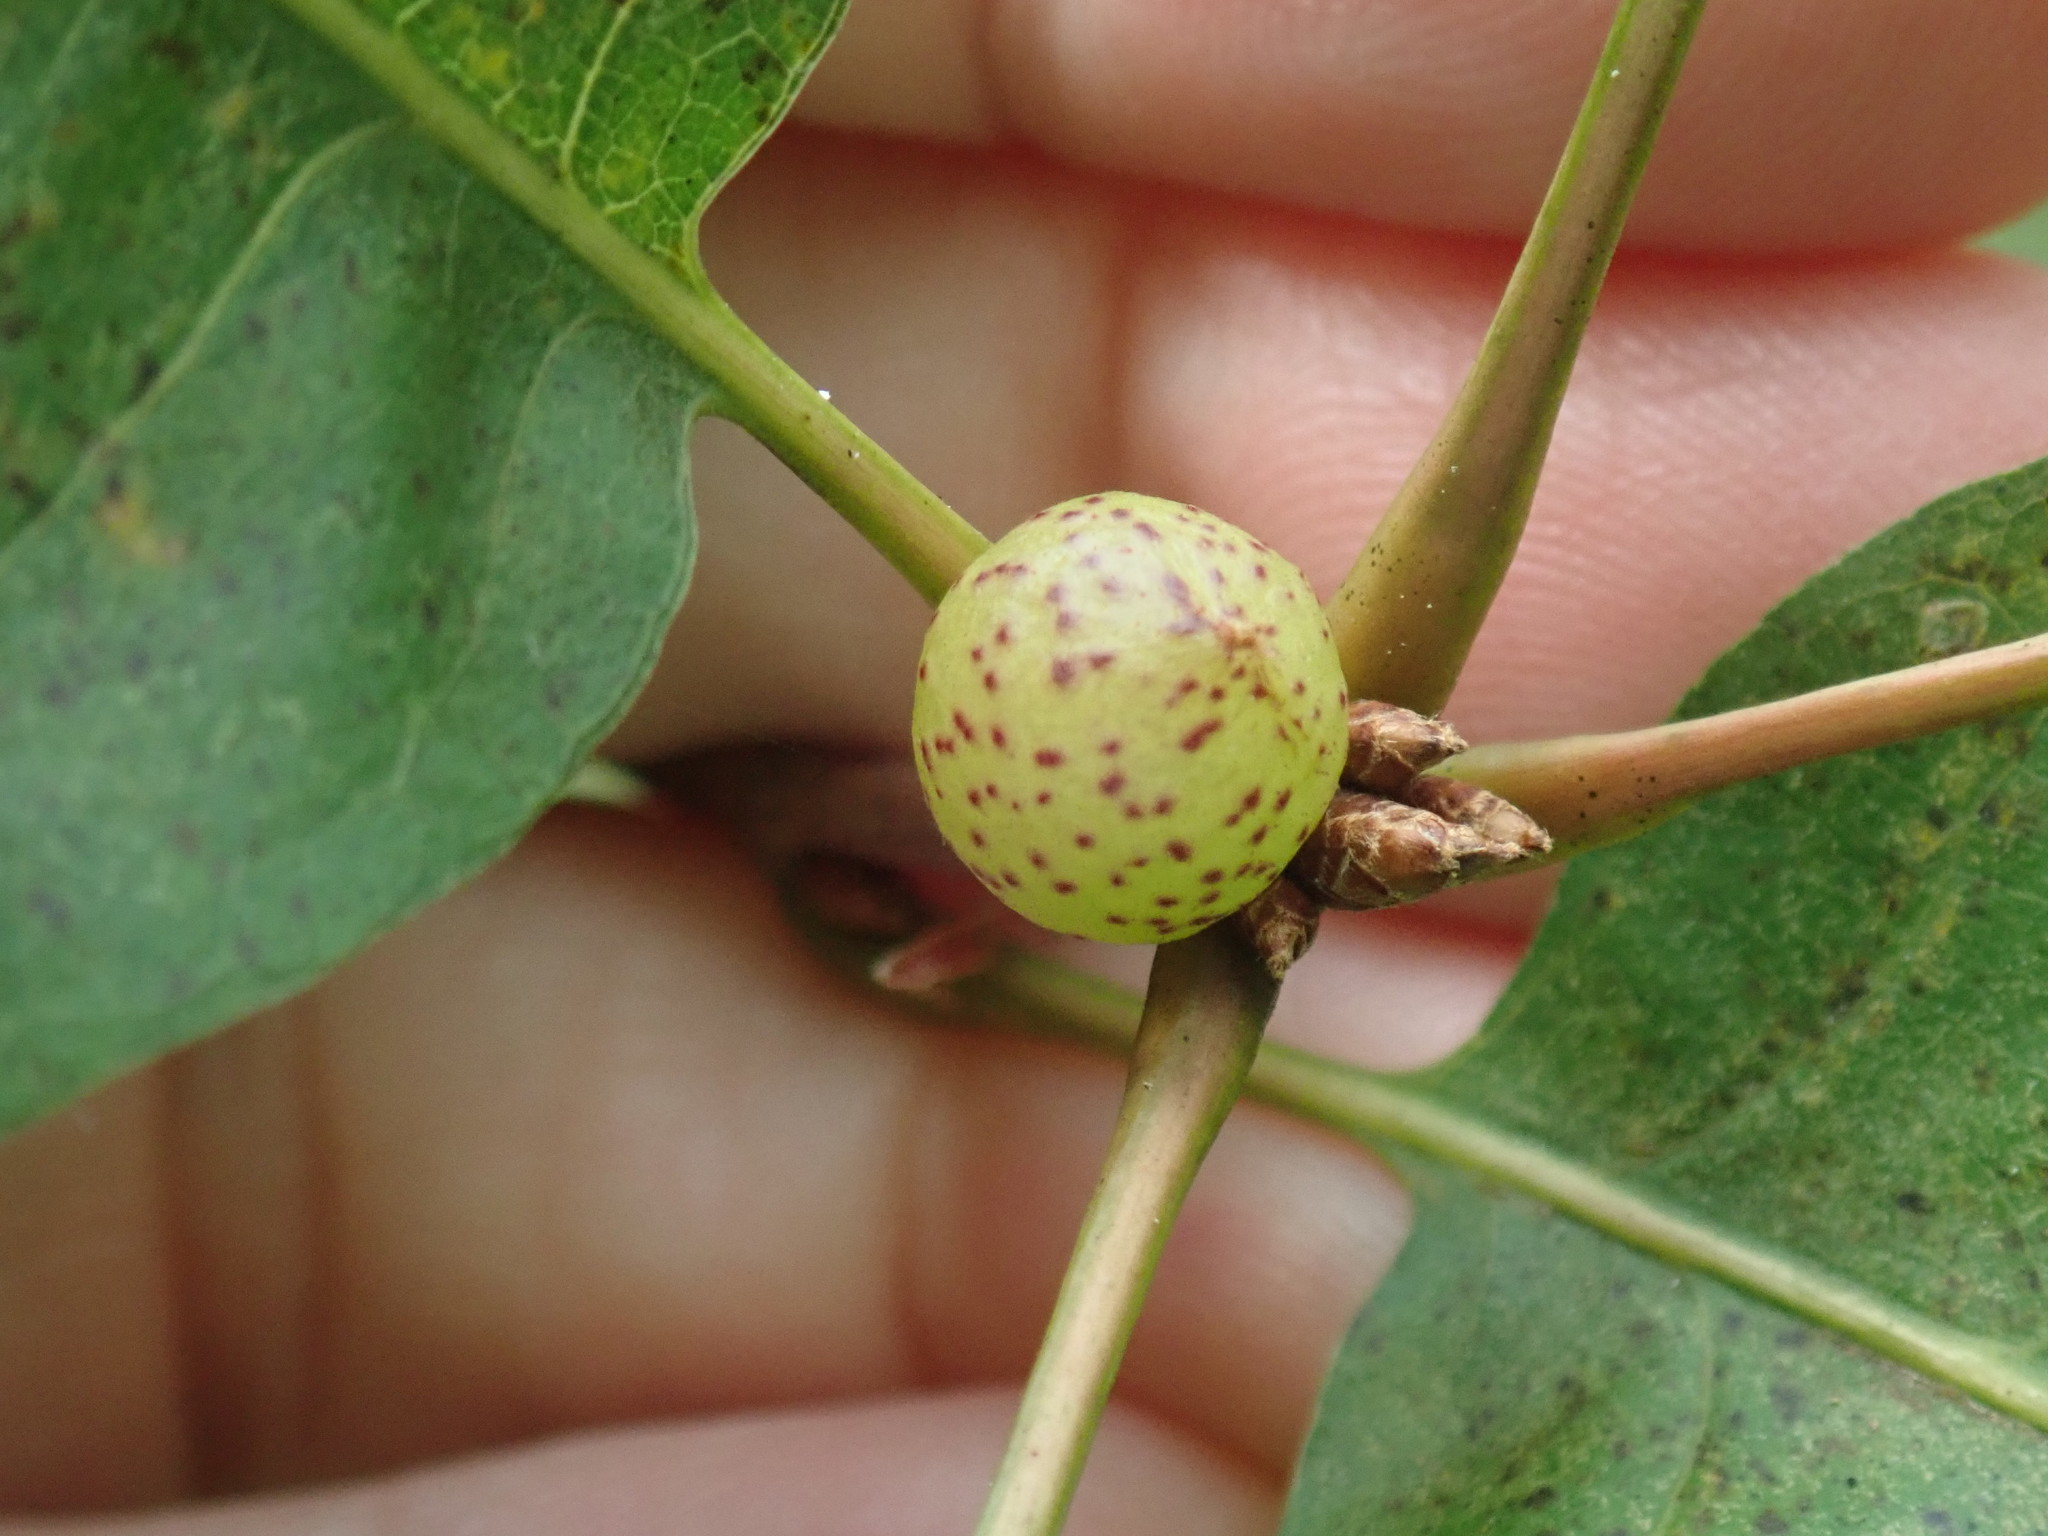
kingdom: Animalia
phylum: Arthropoda
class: Insecta
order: Hymenoptera
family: Cynipidae
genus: Amphibolips
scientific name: Amphibolips
